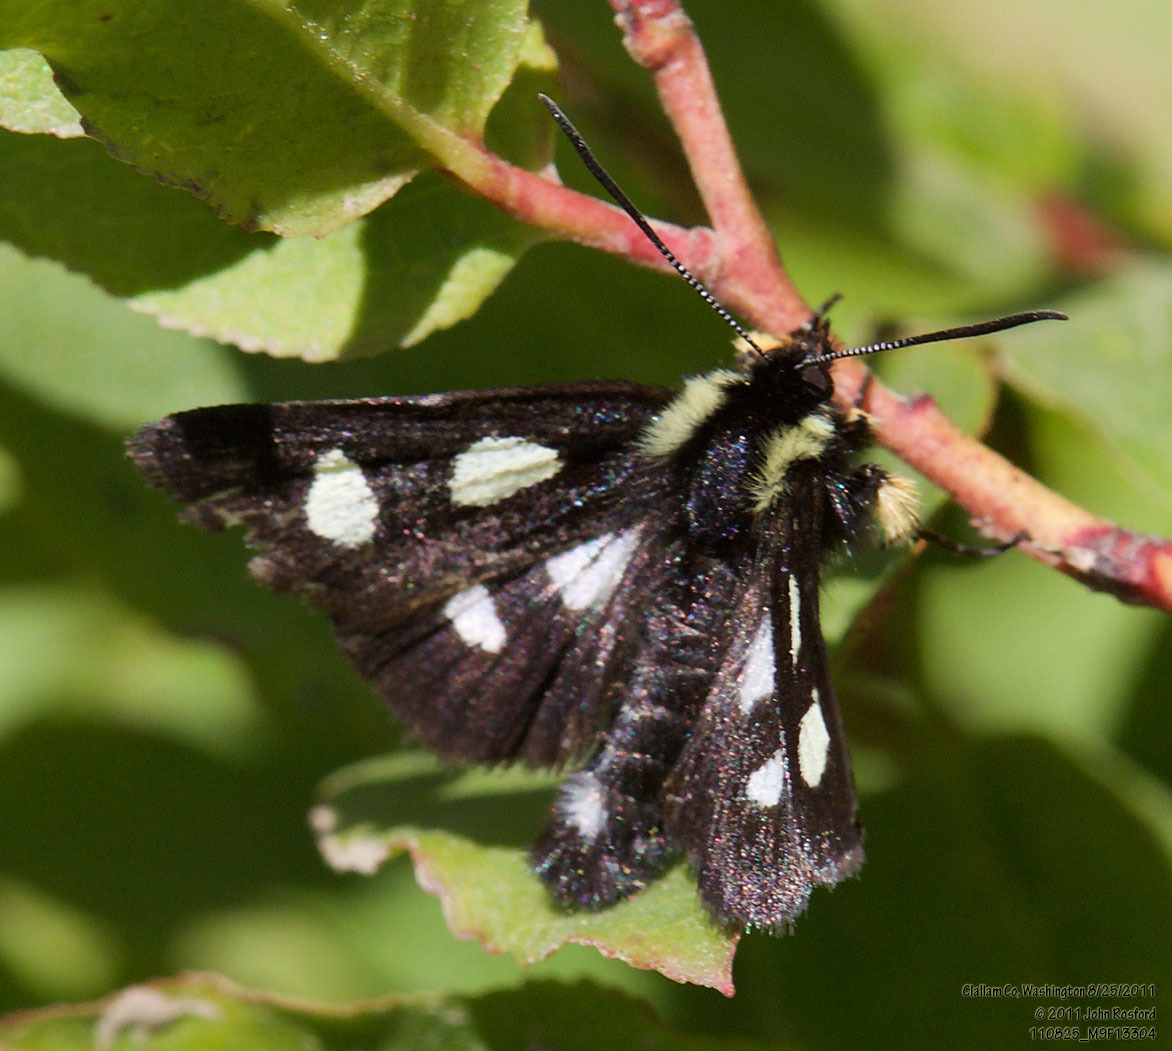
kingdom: Animalia
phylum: Arthropoda
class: Insecta
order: Lepidoptera
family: Noctuidae
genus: Alypia
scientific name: Alypia langtonii
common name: Fireweed caterpillar
